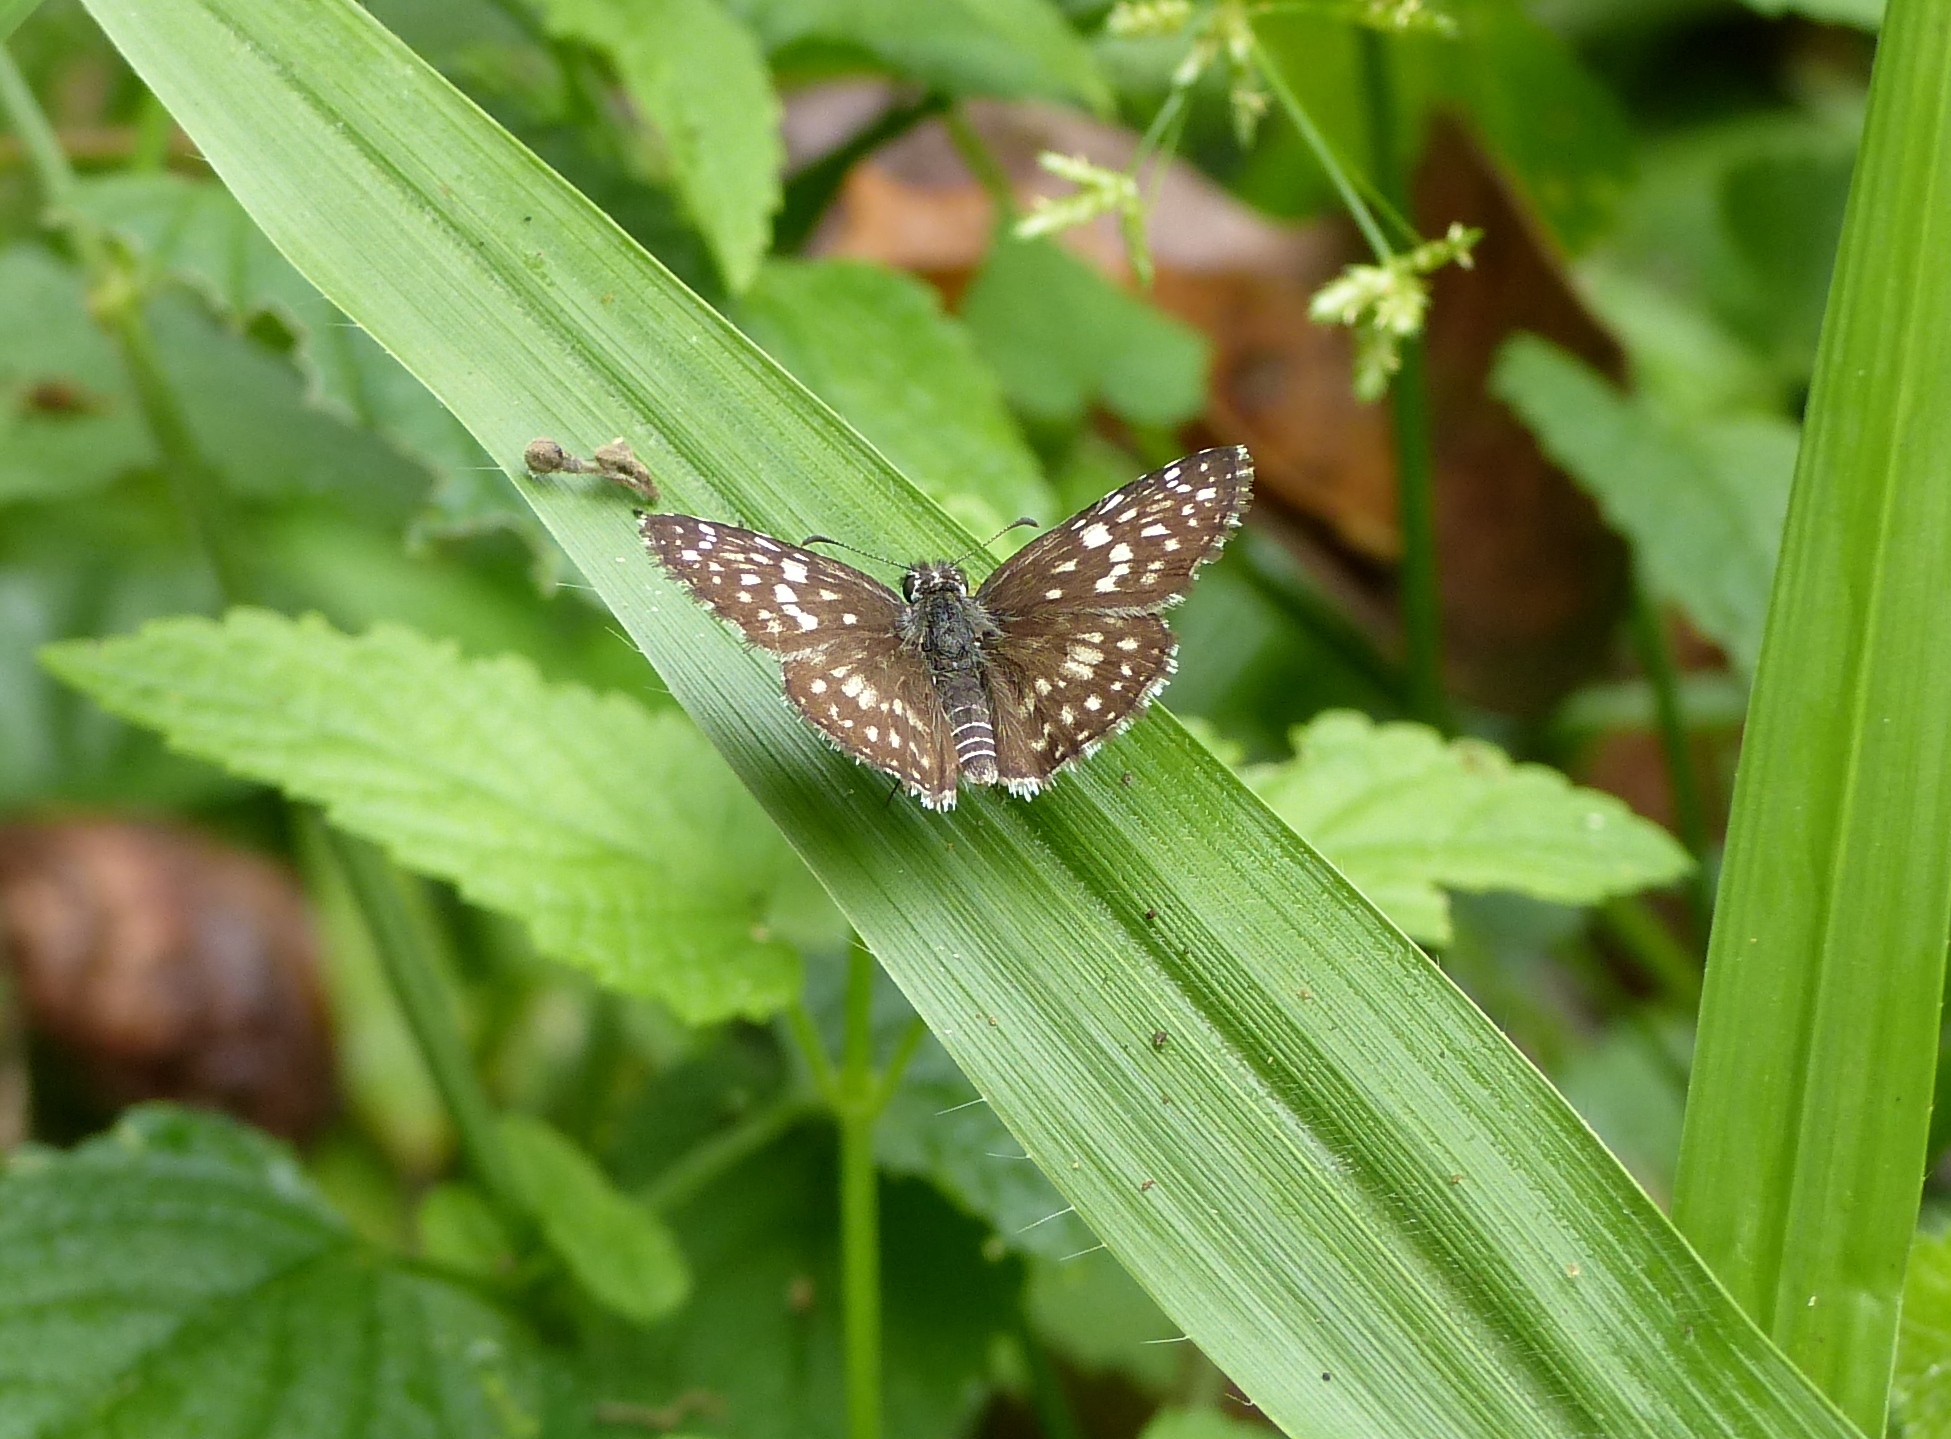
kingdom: Animalia
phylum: Arthropoda
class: Insecta
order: Lepidoptera
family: Hesperiidae
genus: Pyrgus
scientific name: Pyrgus oileus
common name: Tropical checkered-skipper
